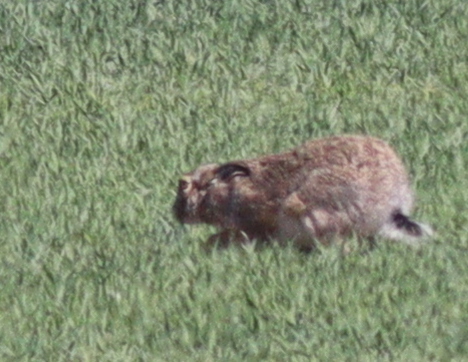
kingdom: Animalia
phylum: Chordata
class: Mammalia
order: Lagomorpha
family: Leporidae
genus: Lepus
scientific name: Lepus europaeus
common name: European hare
